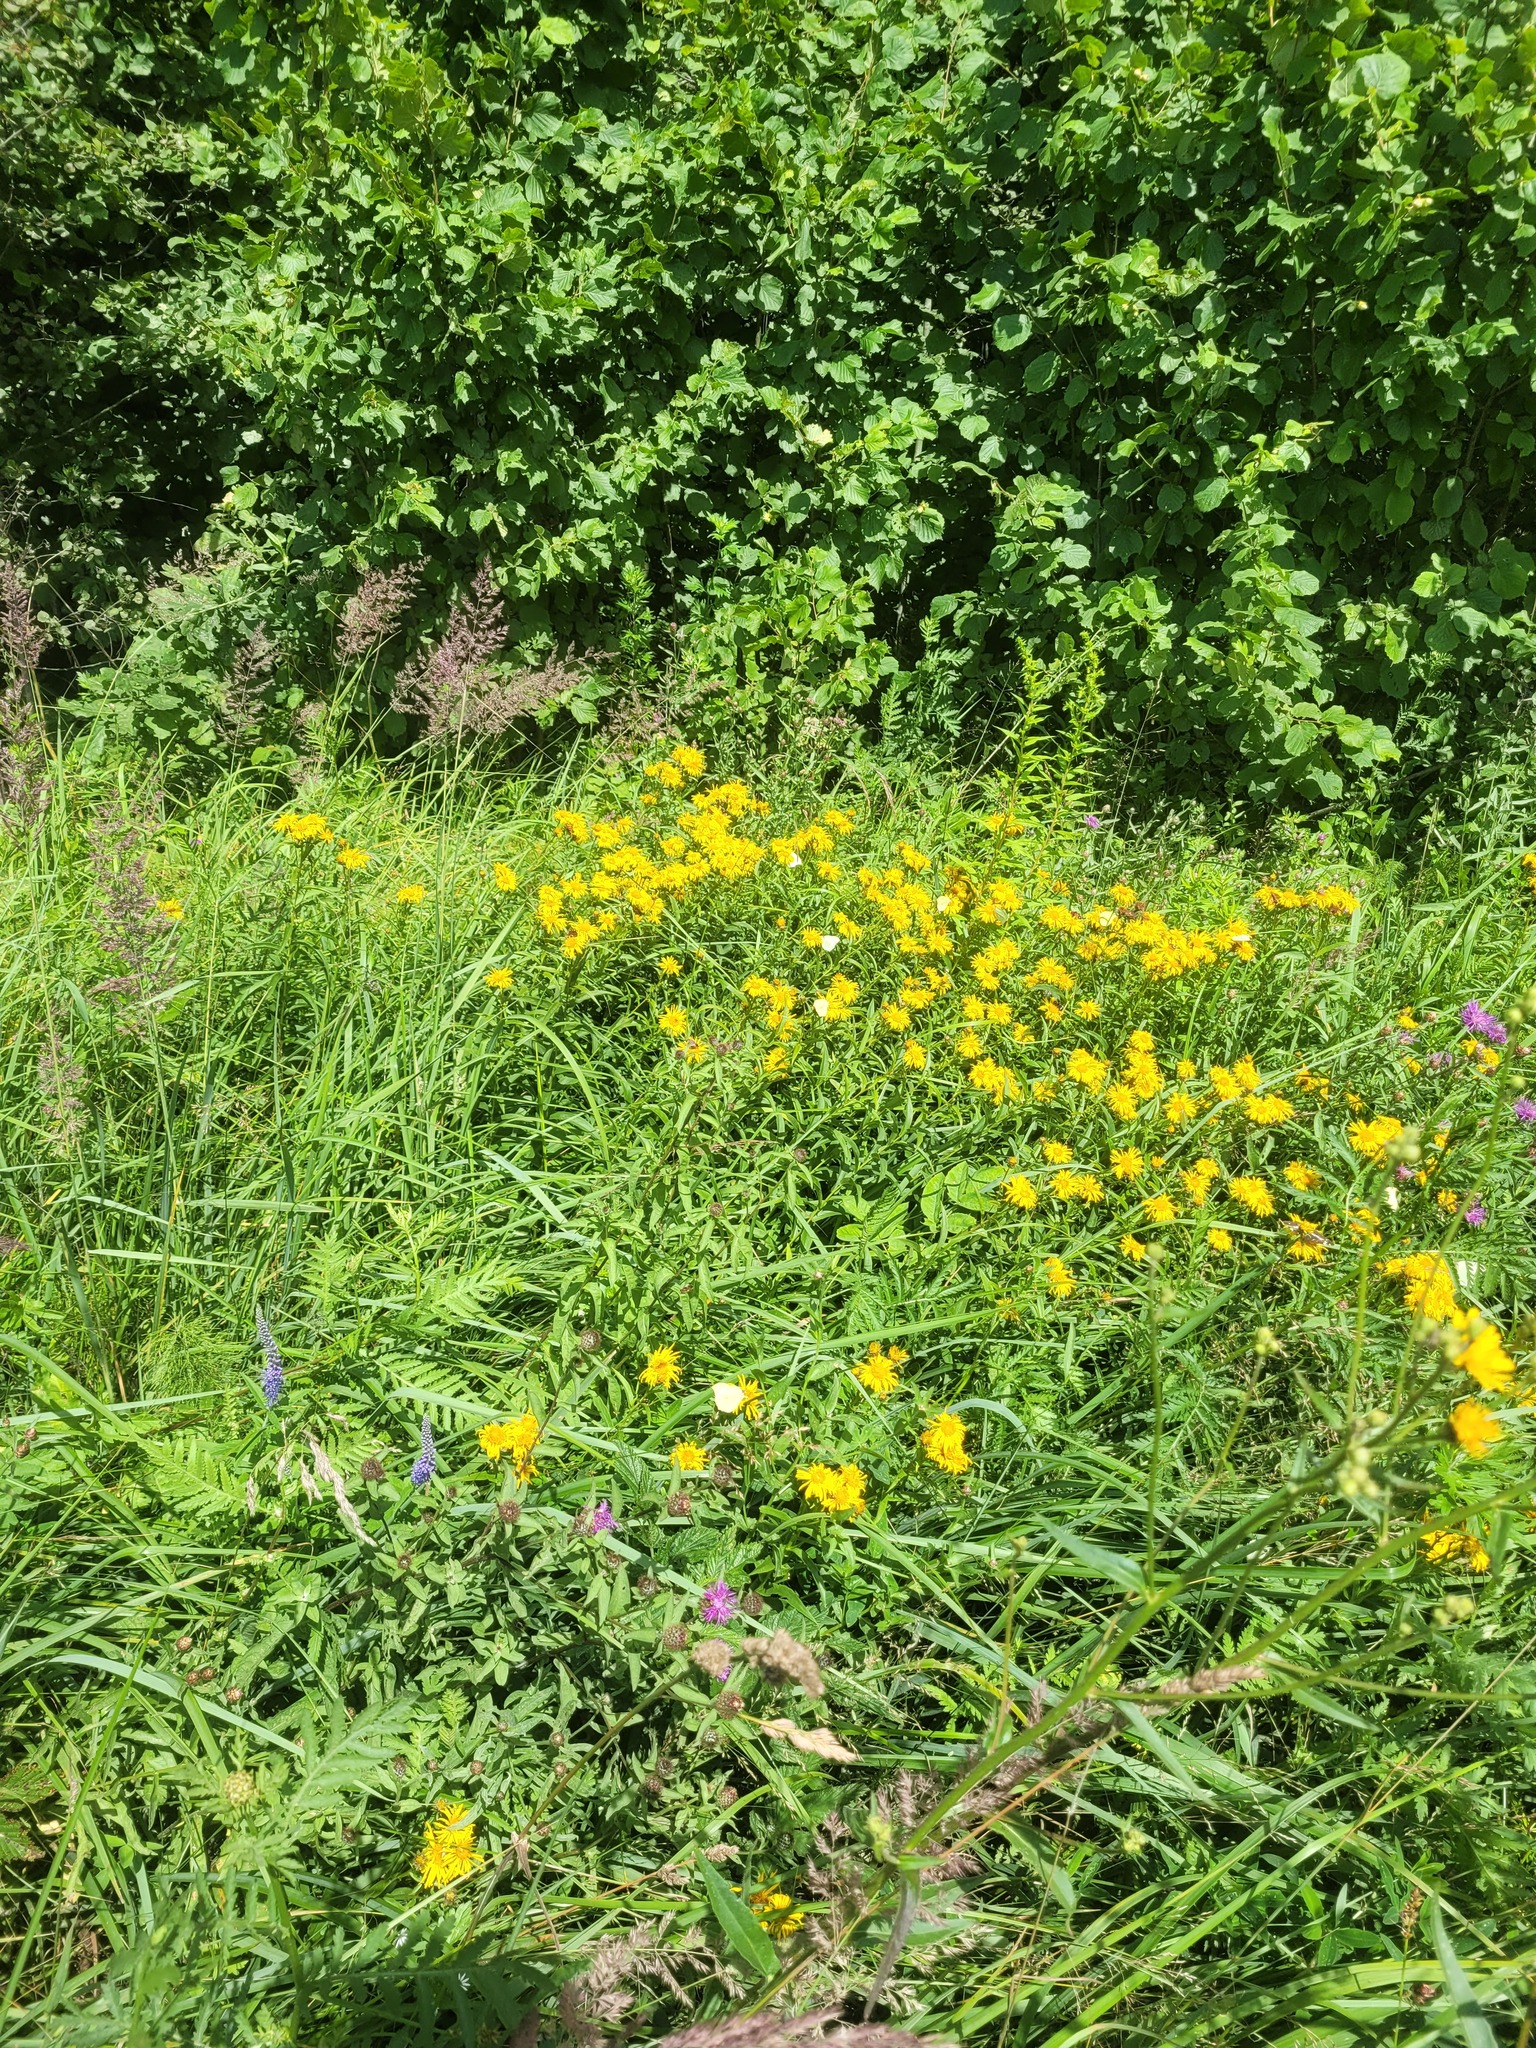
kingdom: Plantae
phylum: Tracheophyta
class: Magnoliopsida
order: Asterales
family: Asteraceae
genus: Pentanema
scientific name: Pentanema salicinum
